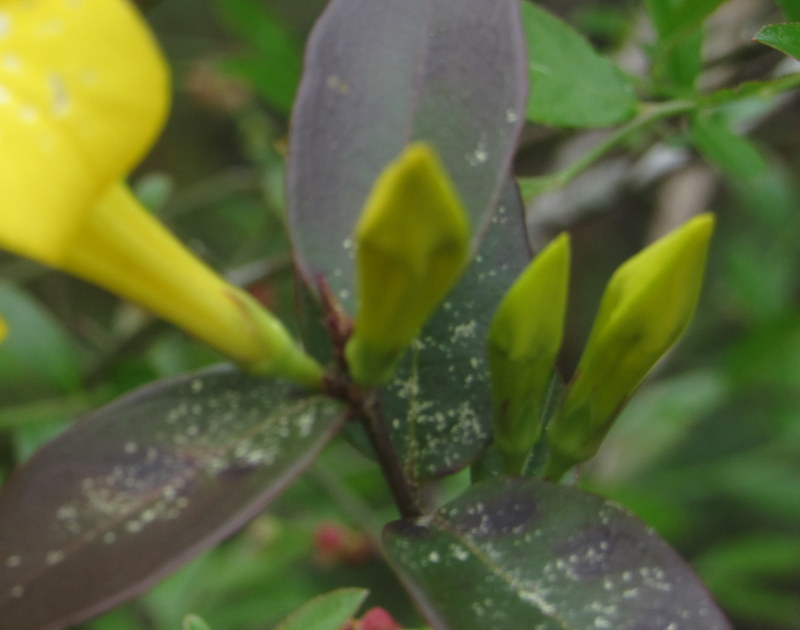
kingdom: Plantae
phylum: Tracheophyta
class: Magnoliopsida
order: Gentianales
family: Gelsemiaceae
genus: Gelsemium
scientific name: Gelsemium rankinii
